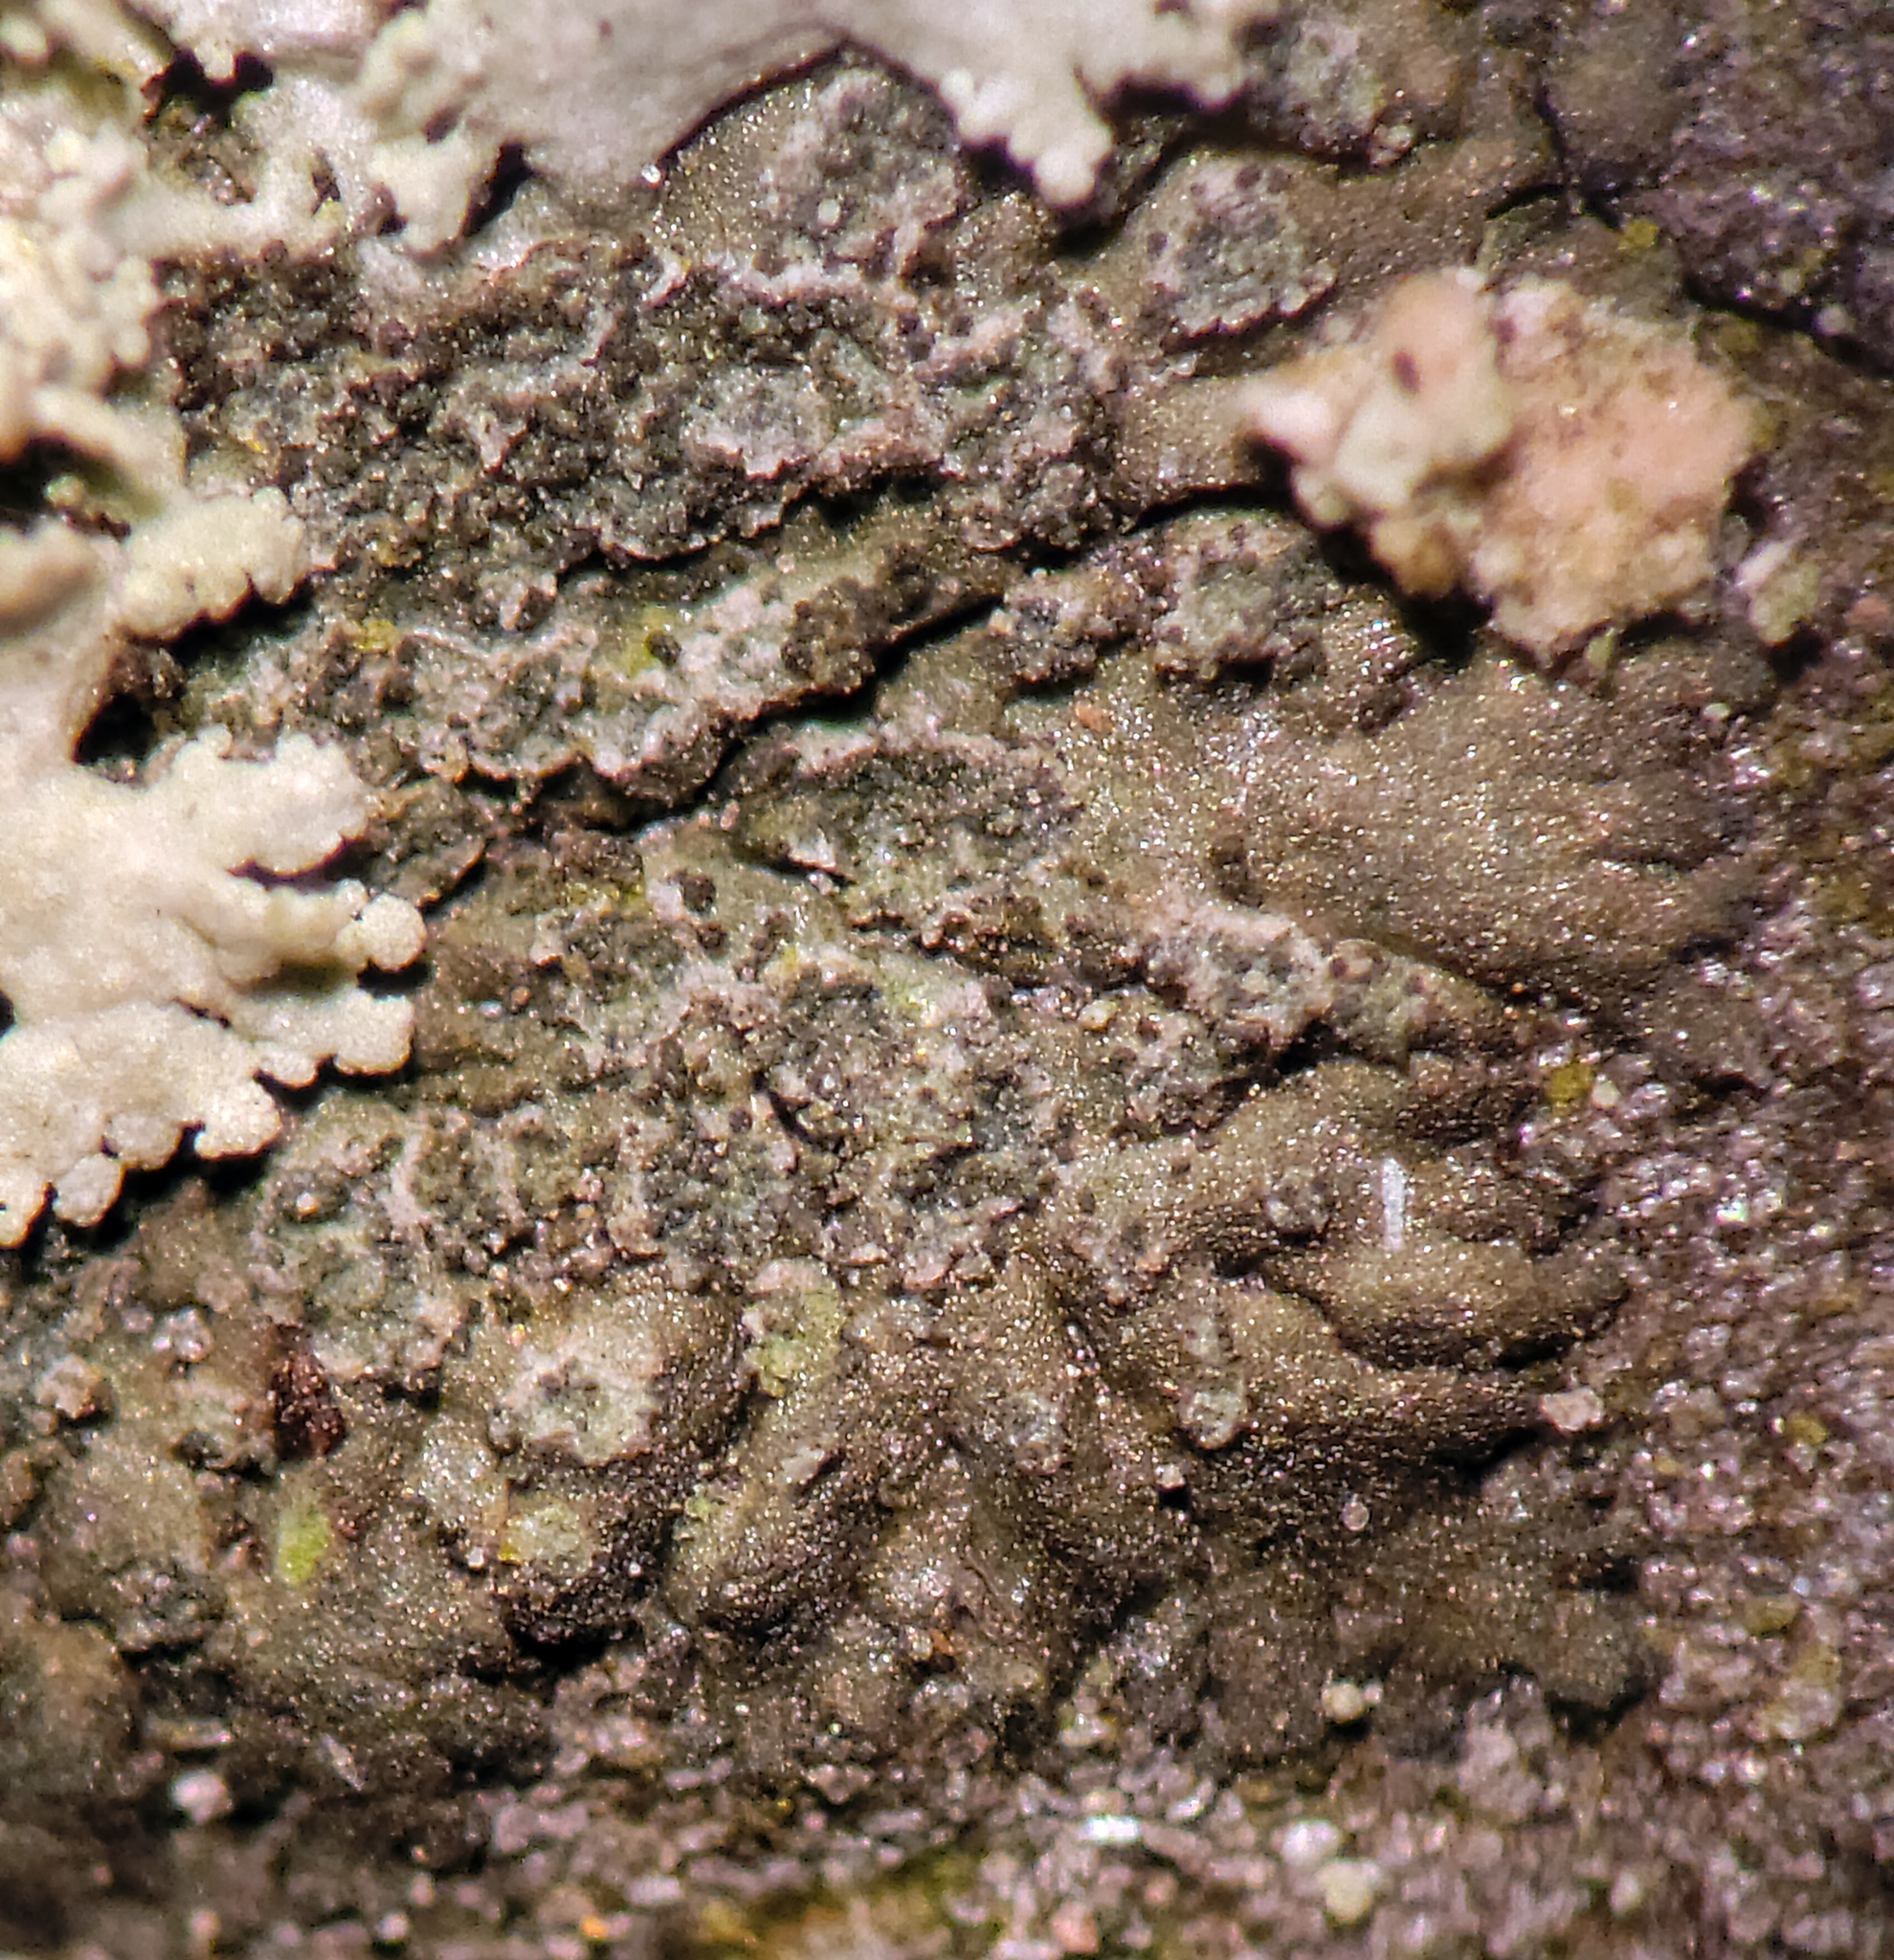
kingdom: Fungi
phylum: Ascomycota
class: Lecanoromycetes
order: Caliciales
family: Physciaceae
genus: Hyperphyscia
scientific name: Hyperphyscia adglutinata
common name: Grainy shadow-crust lichen
